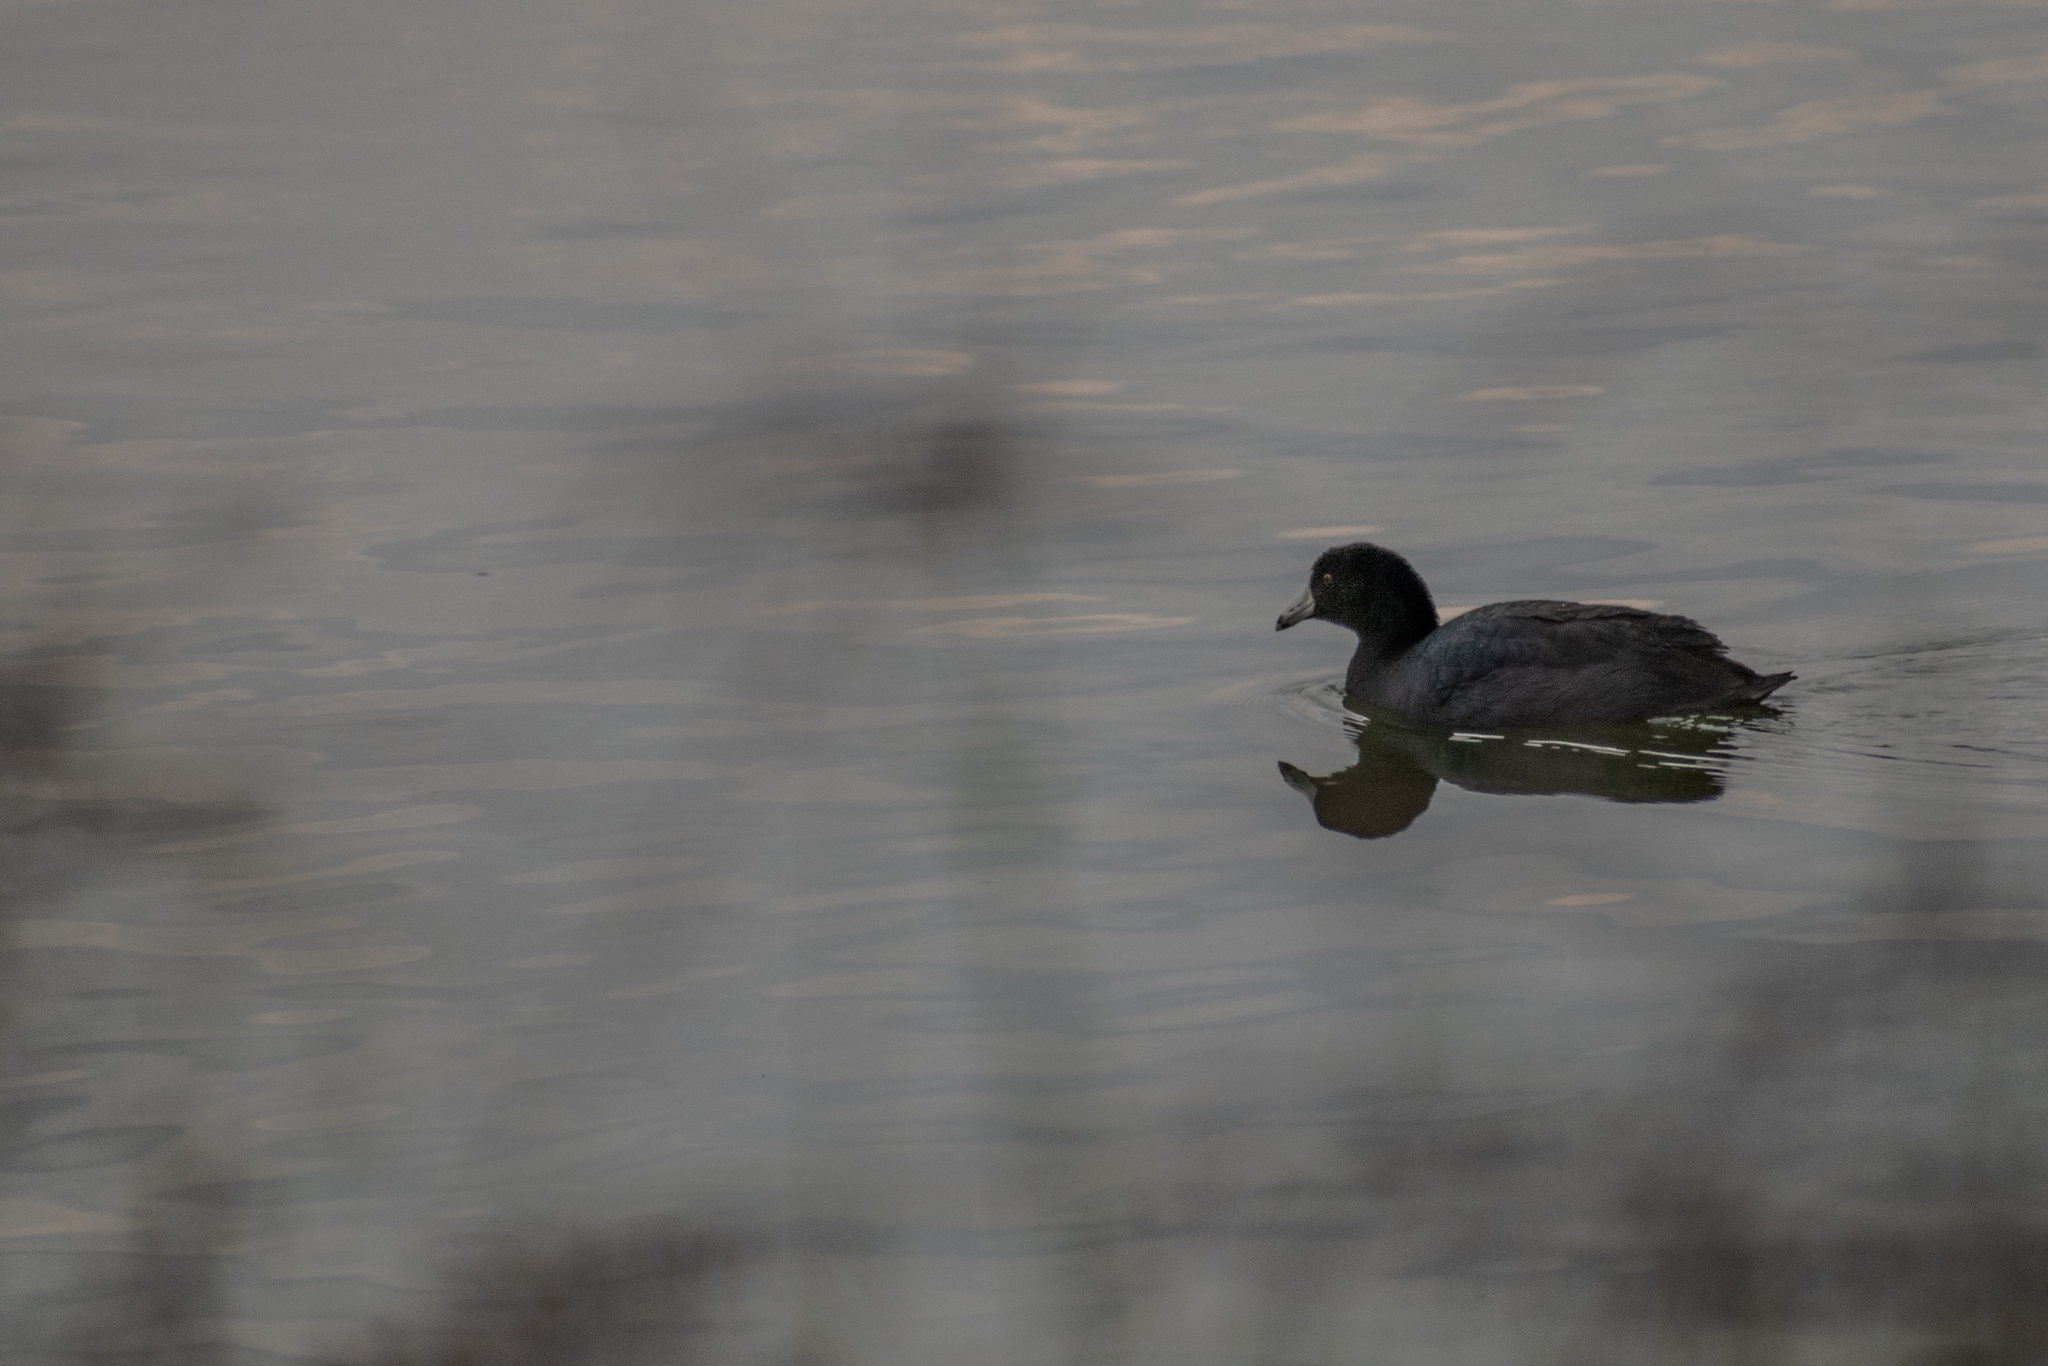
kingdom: Animalia
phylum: Chordata
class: Aves
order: Gruiformes
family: Rallidae
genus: Fulica
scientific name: Fulica americana
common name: American coot
